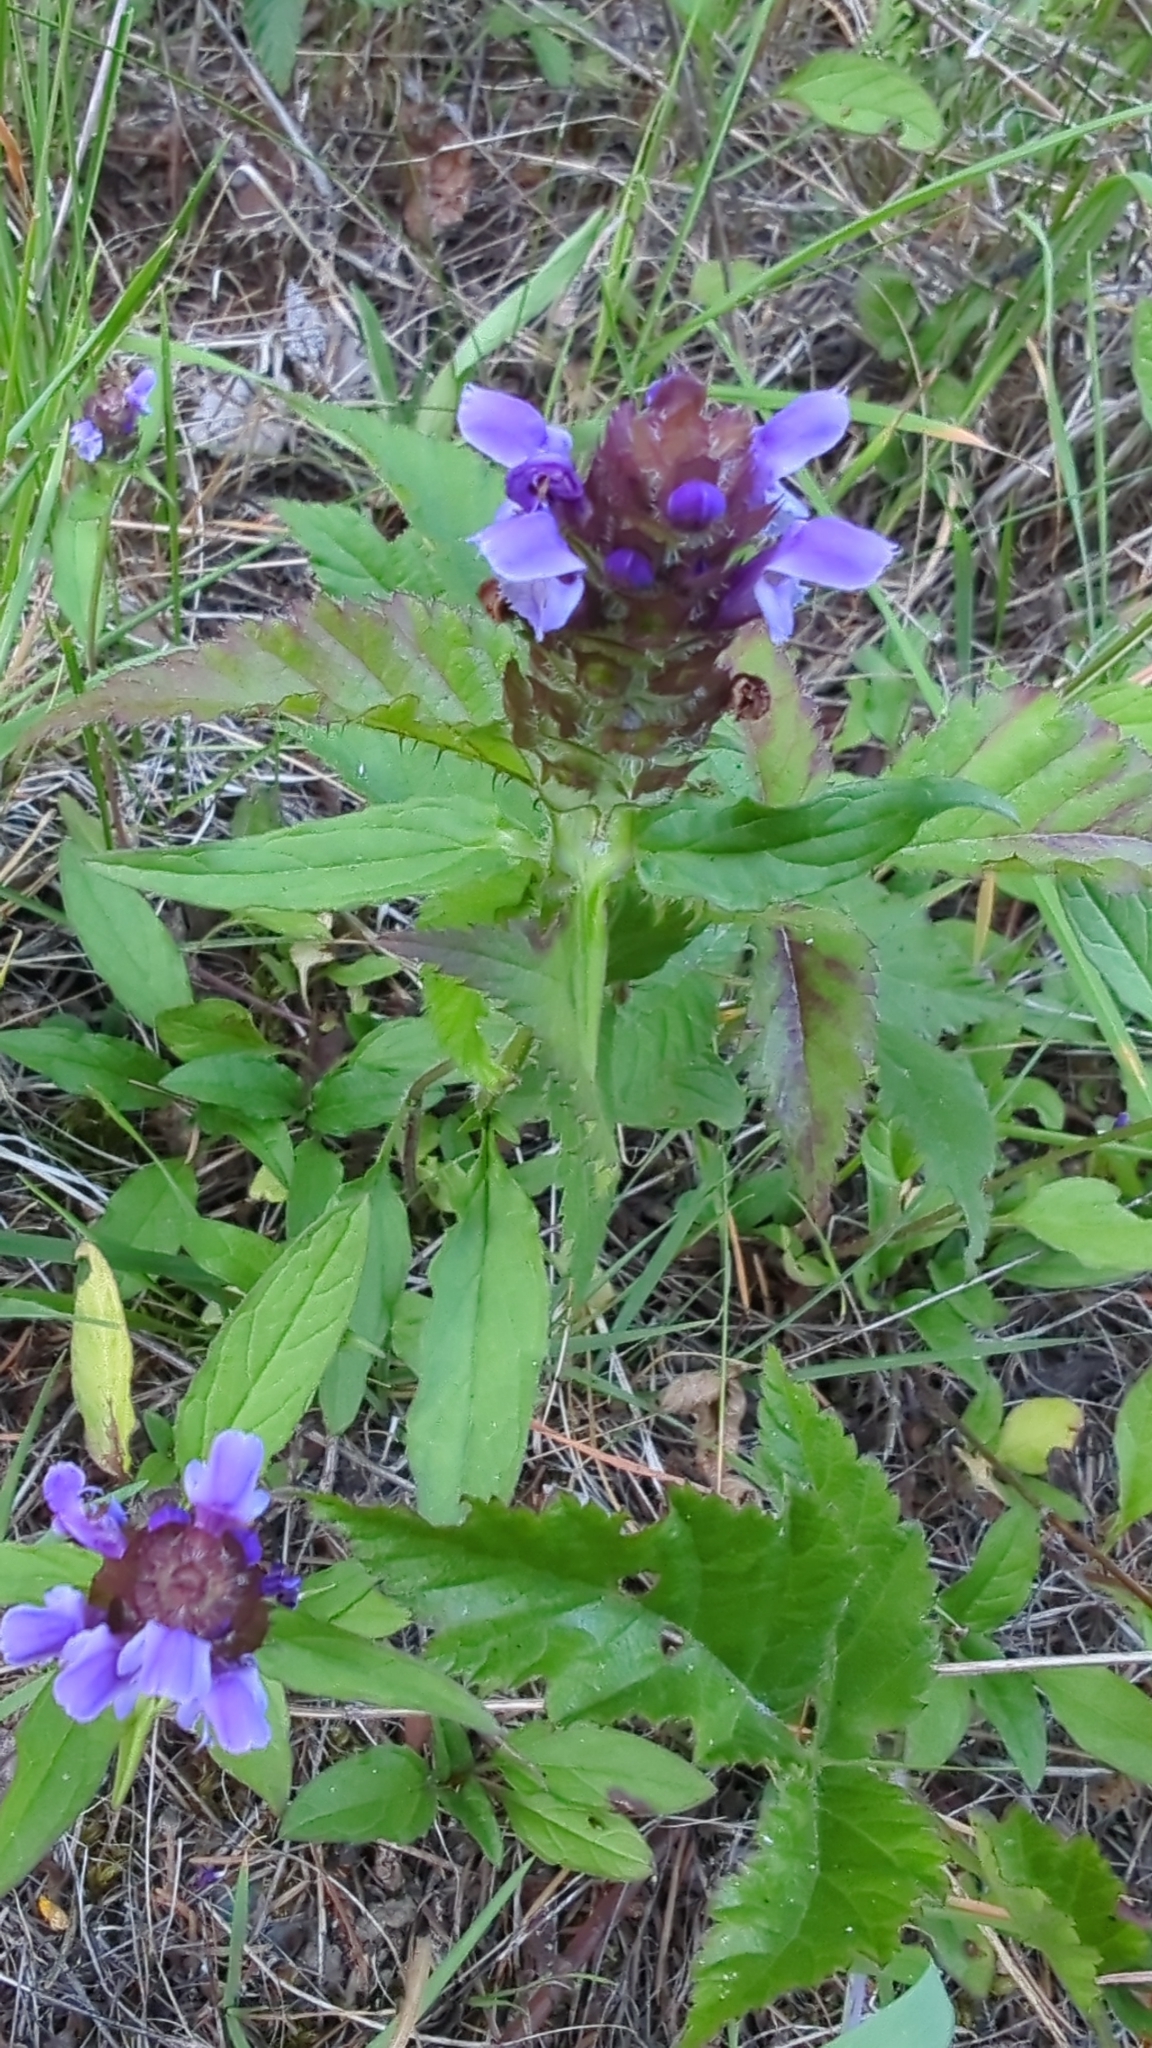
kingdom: Plantae
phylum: Tracheophyta
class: Magnoliopsida
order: Lamiales
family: Lamiaceae
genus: Prunella
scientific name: Prunella vulgaris
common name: Heal-all
